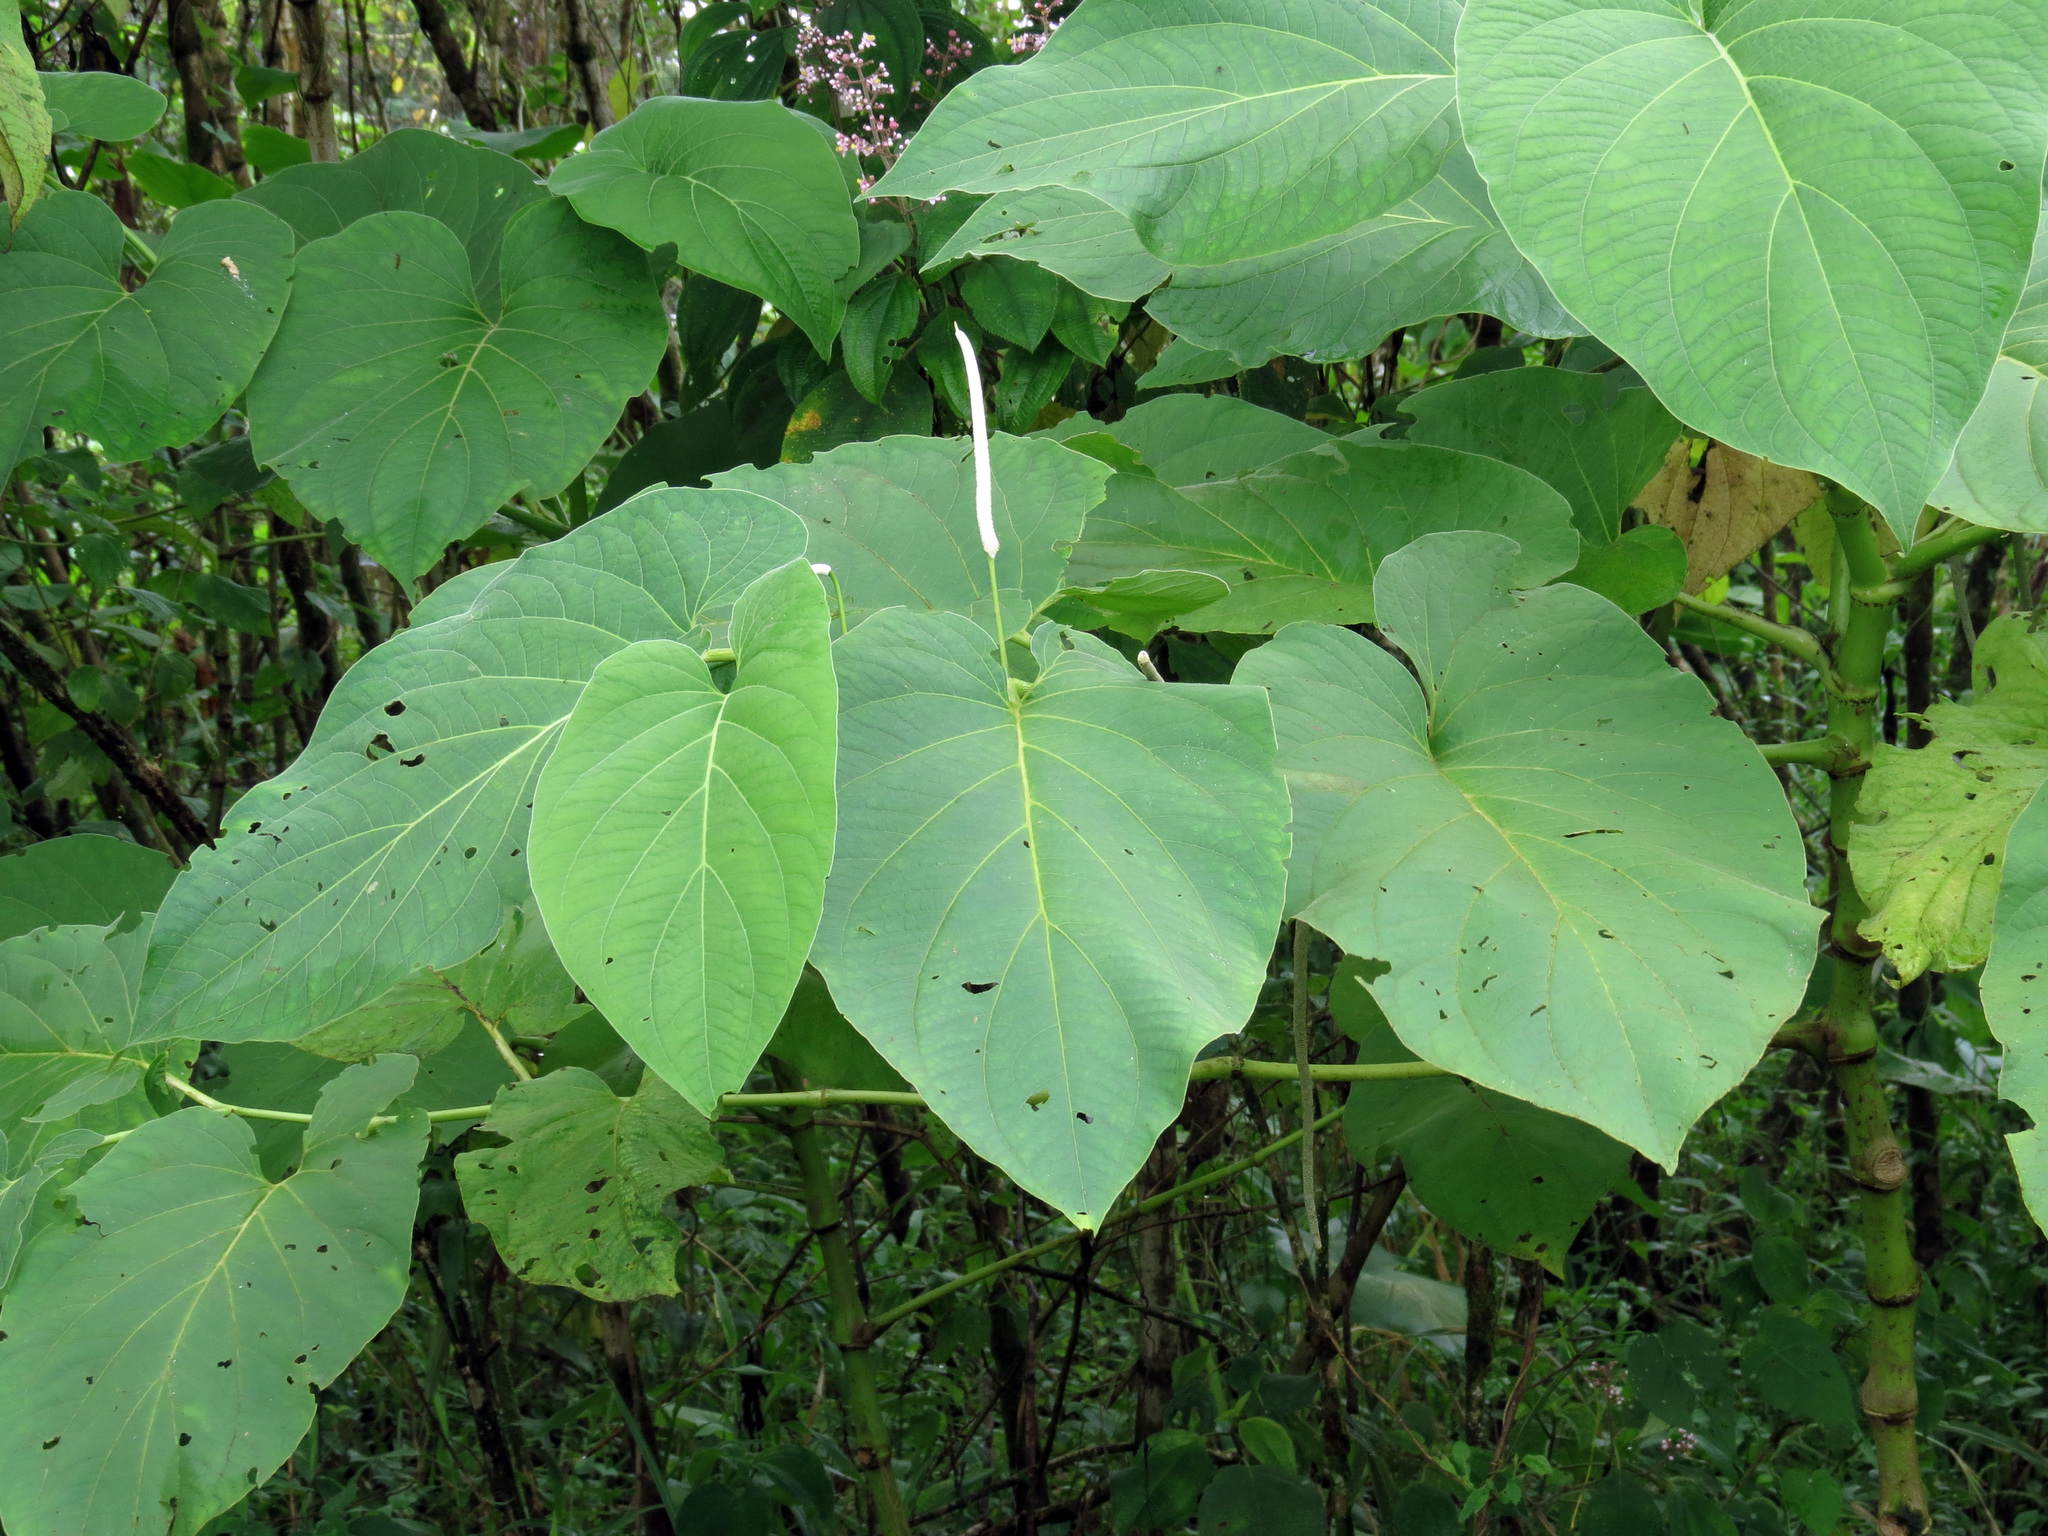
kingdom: Plantae
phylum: Tracheophyta
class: Magnoliopsida
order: Piperales
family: Piperaceae
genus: Piper
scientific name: Piper auritum
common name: Vera cruz pepper
